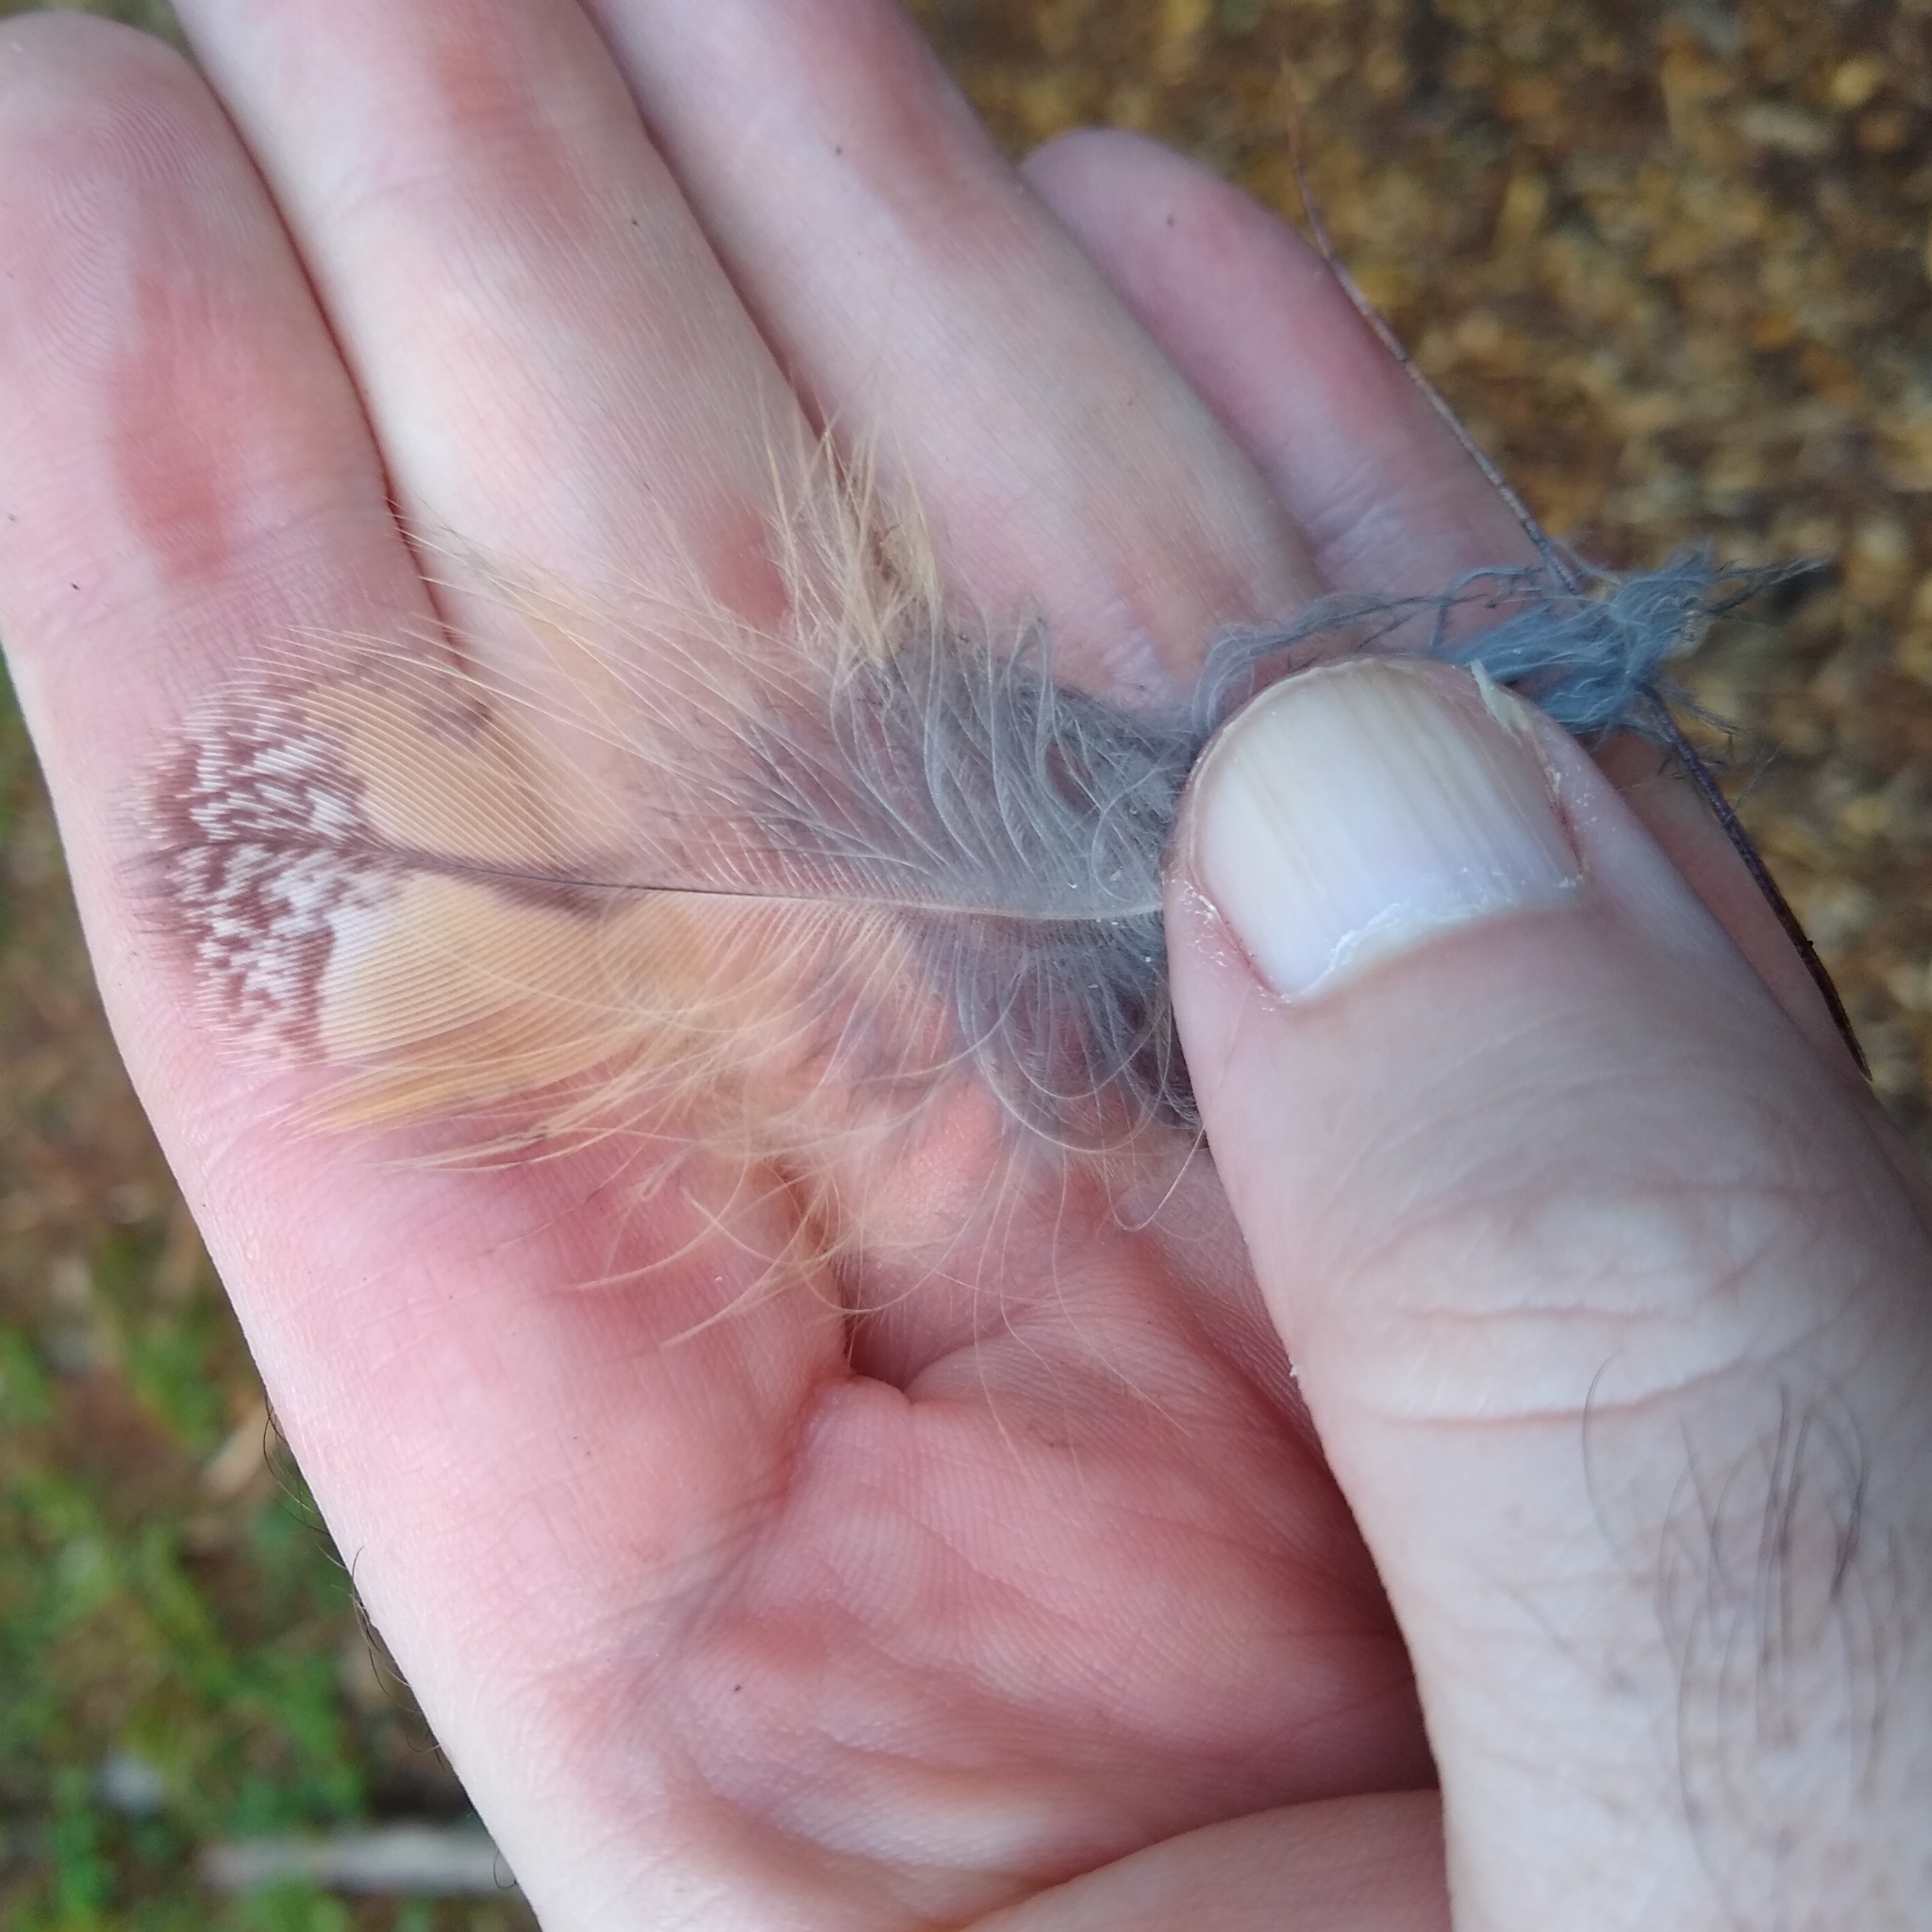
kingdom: Animalia
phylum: Chordata
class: Aves
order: Strigiformes
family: Strigidae
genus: Asio
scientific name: Asio otus
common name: Long-eared owl
